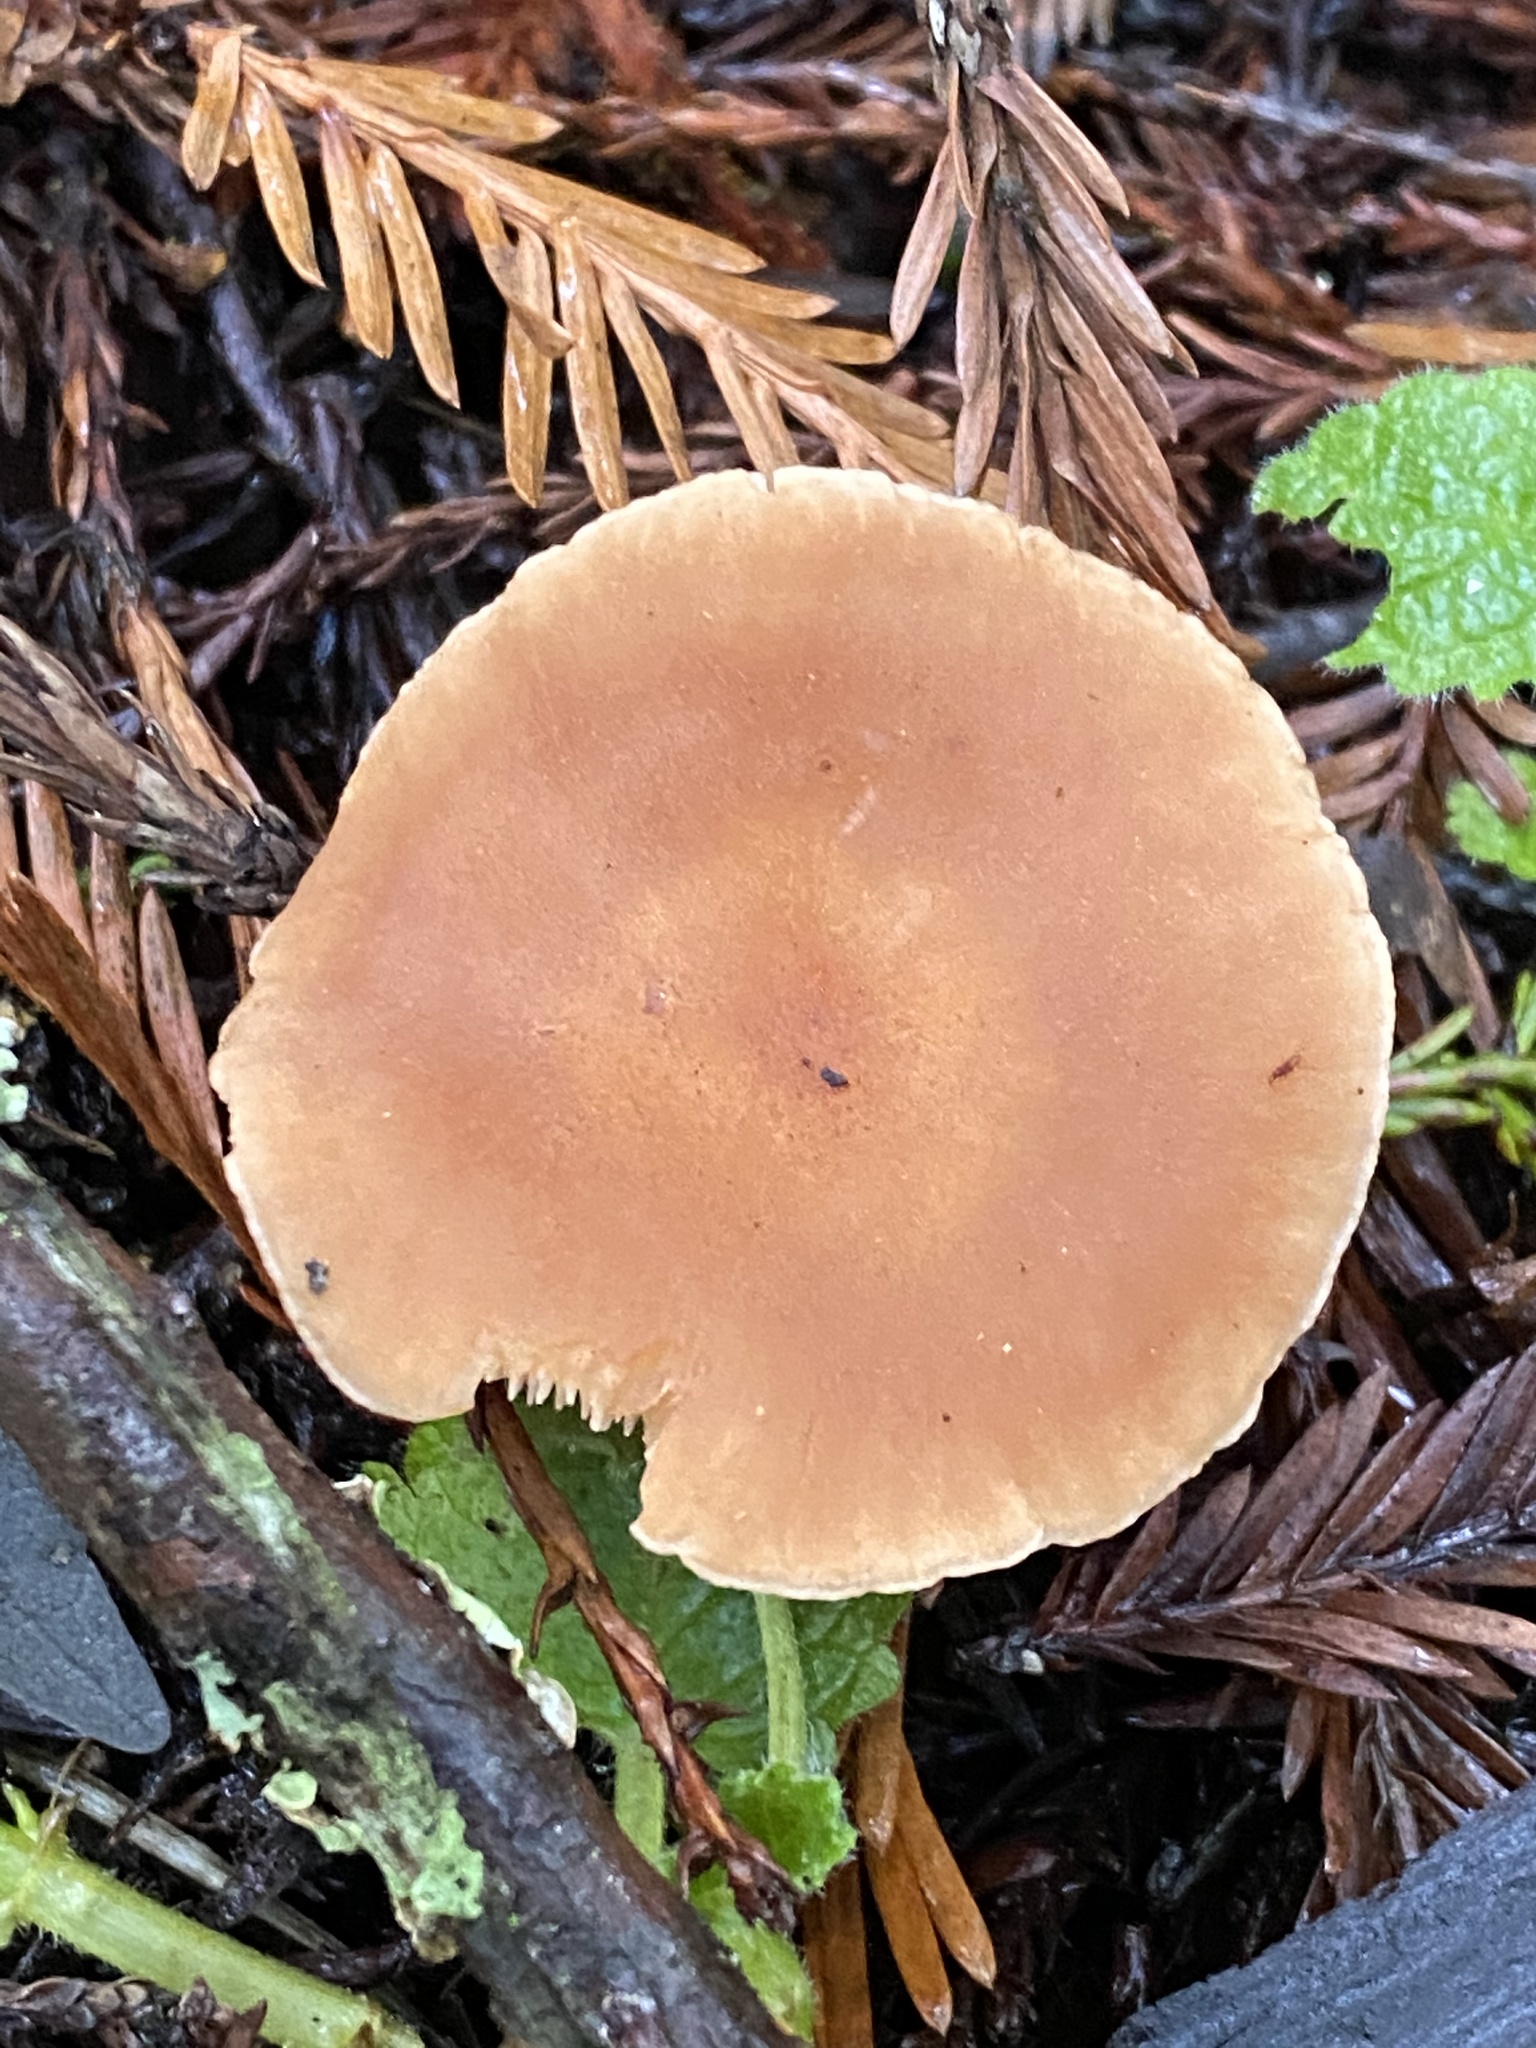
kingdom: Fungi
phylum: Basidiomycota
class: Agaricomycetes
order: Agaricales
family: Tricholomataceae
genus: Paralepista
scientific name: Paralepista flaccida
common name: Tawny funnel cap
